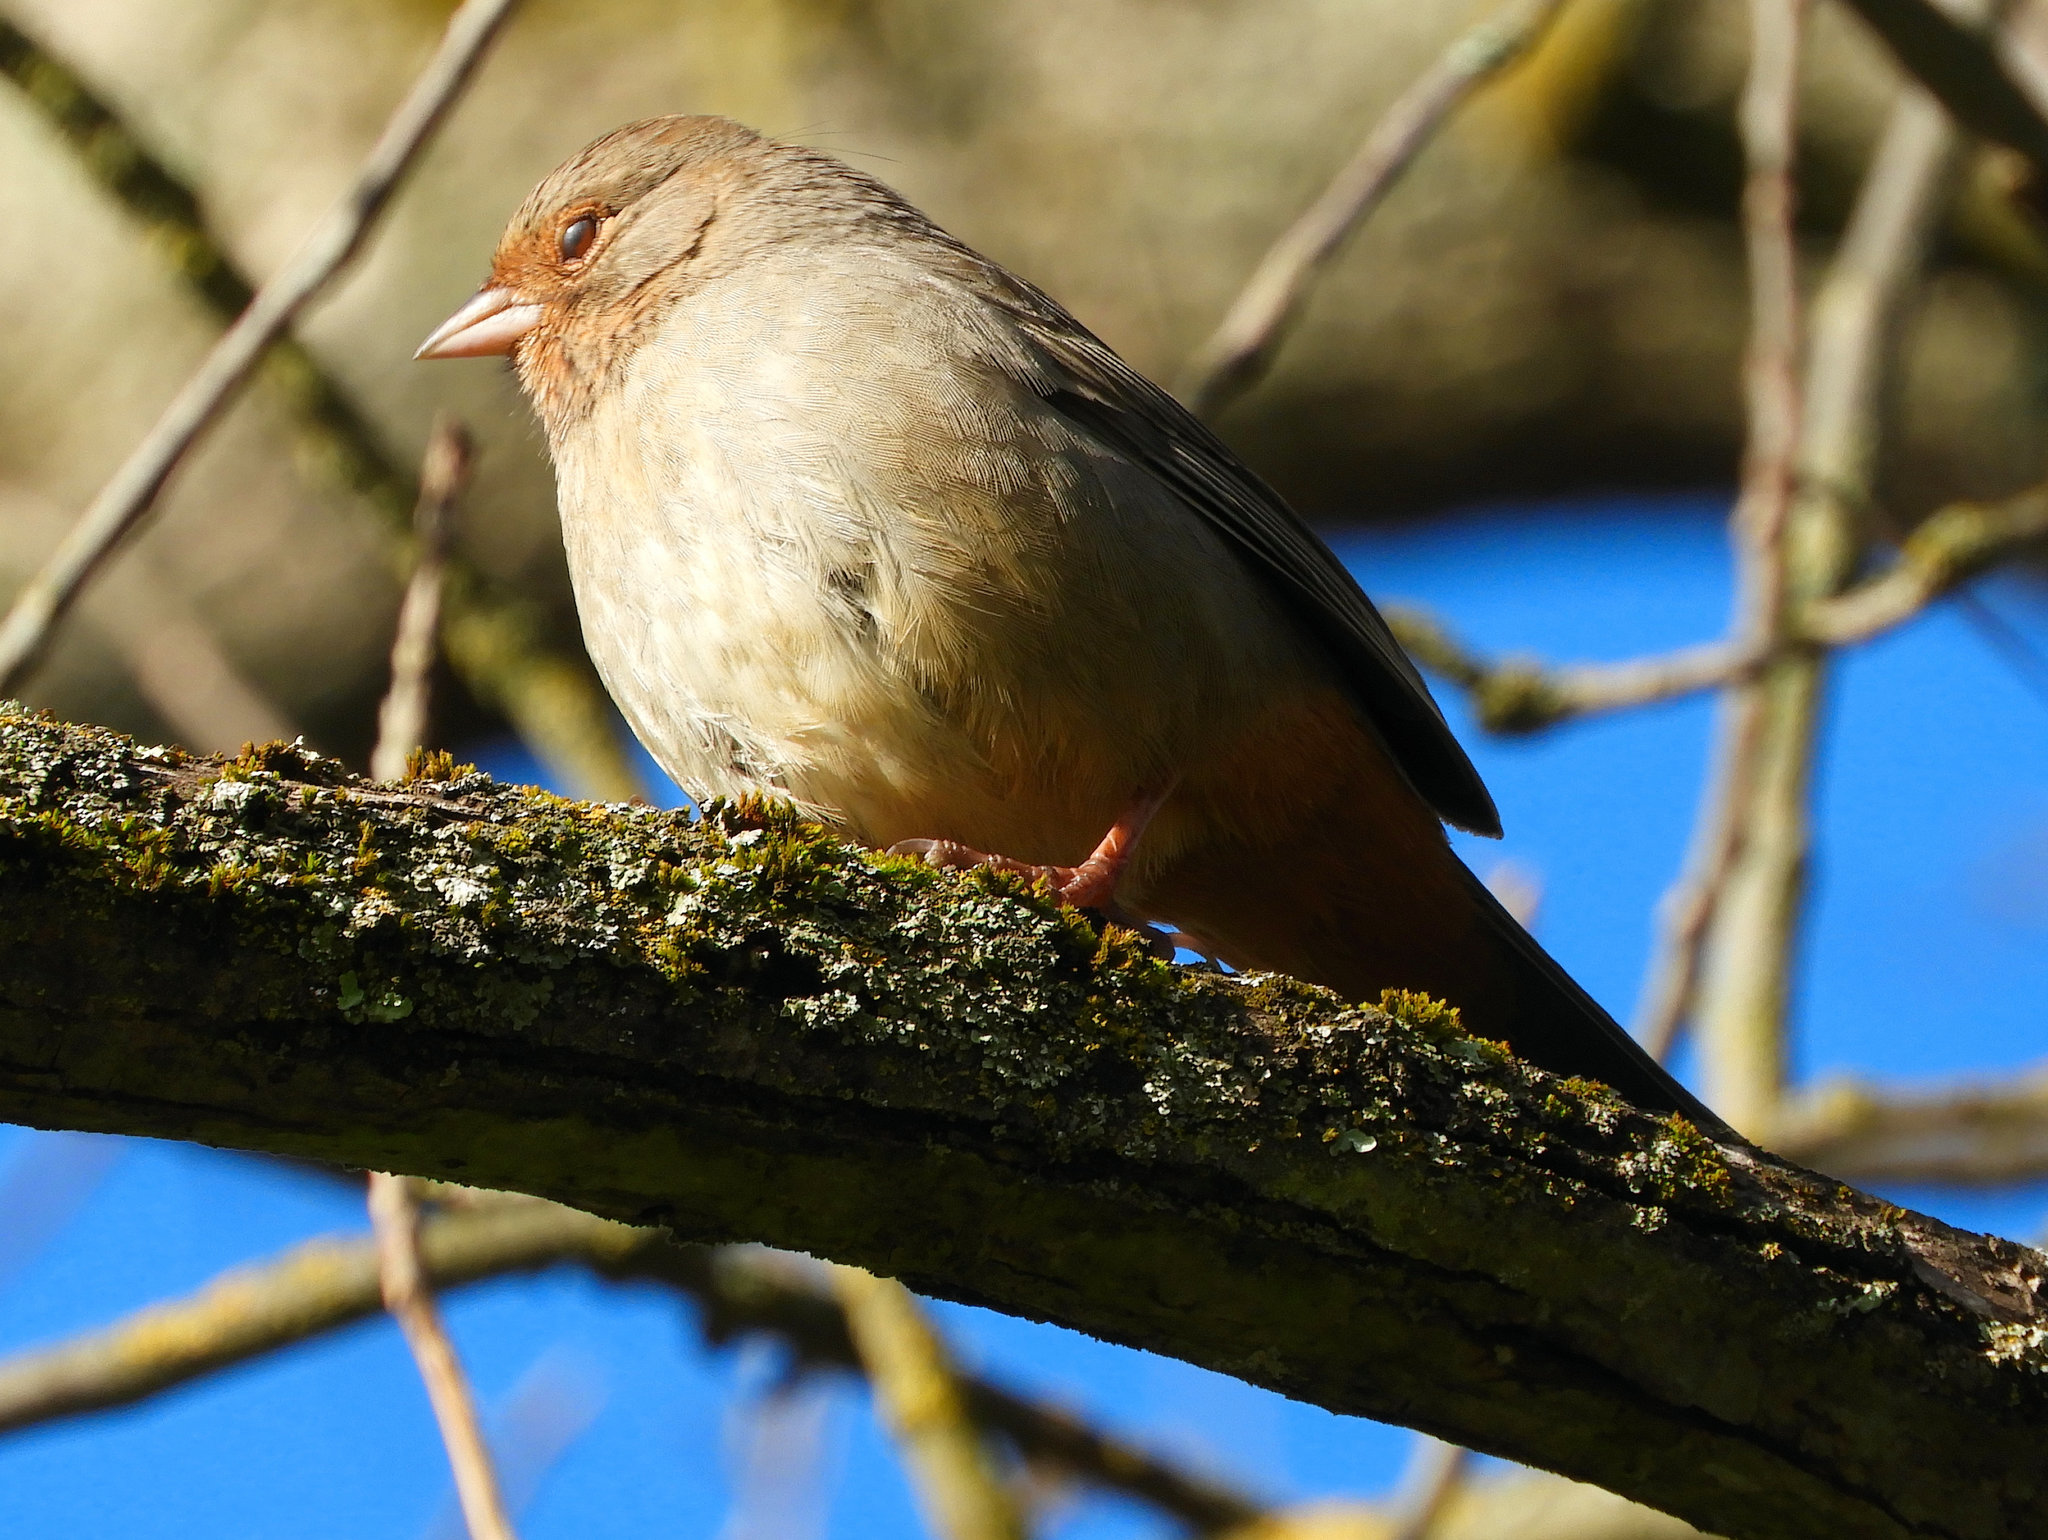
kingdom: Animalia
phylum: Chordata
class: Aves
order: Passeriformes
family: Passerellidae
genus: Melozone
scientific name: Melozone crissalis
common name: California towhee
